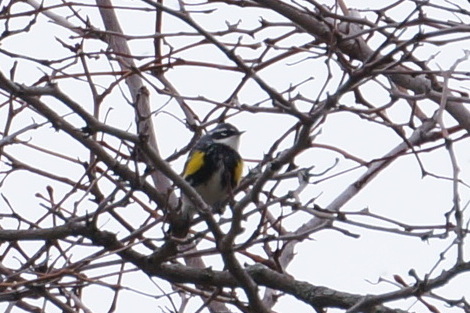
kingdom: Animalia
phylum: Chordata
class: Aves
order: Passeriformes
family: Parulidae
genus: Setophaga
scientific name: Setophaga coronata
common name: Myrtle warbler
